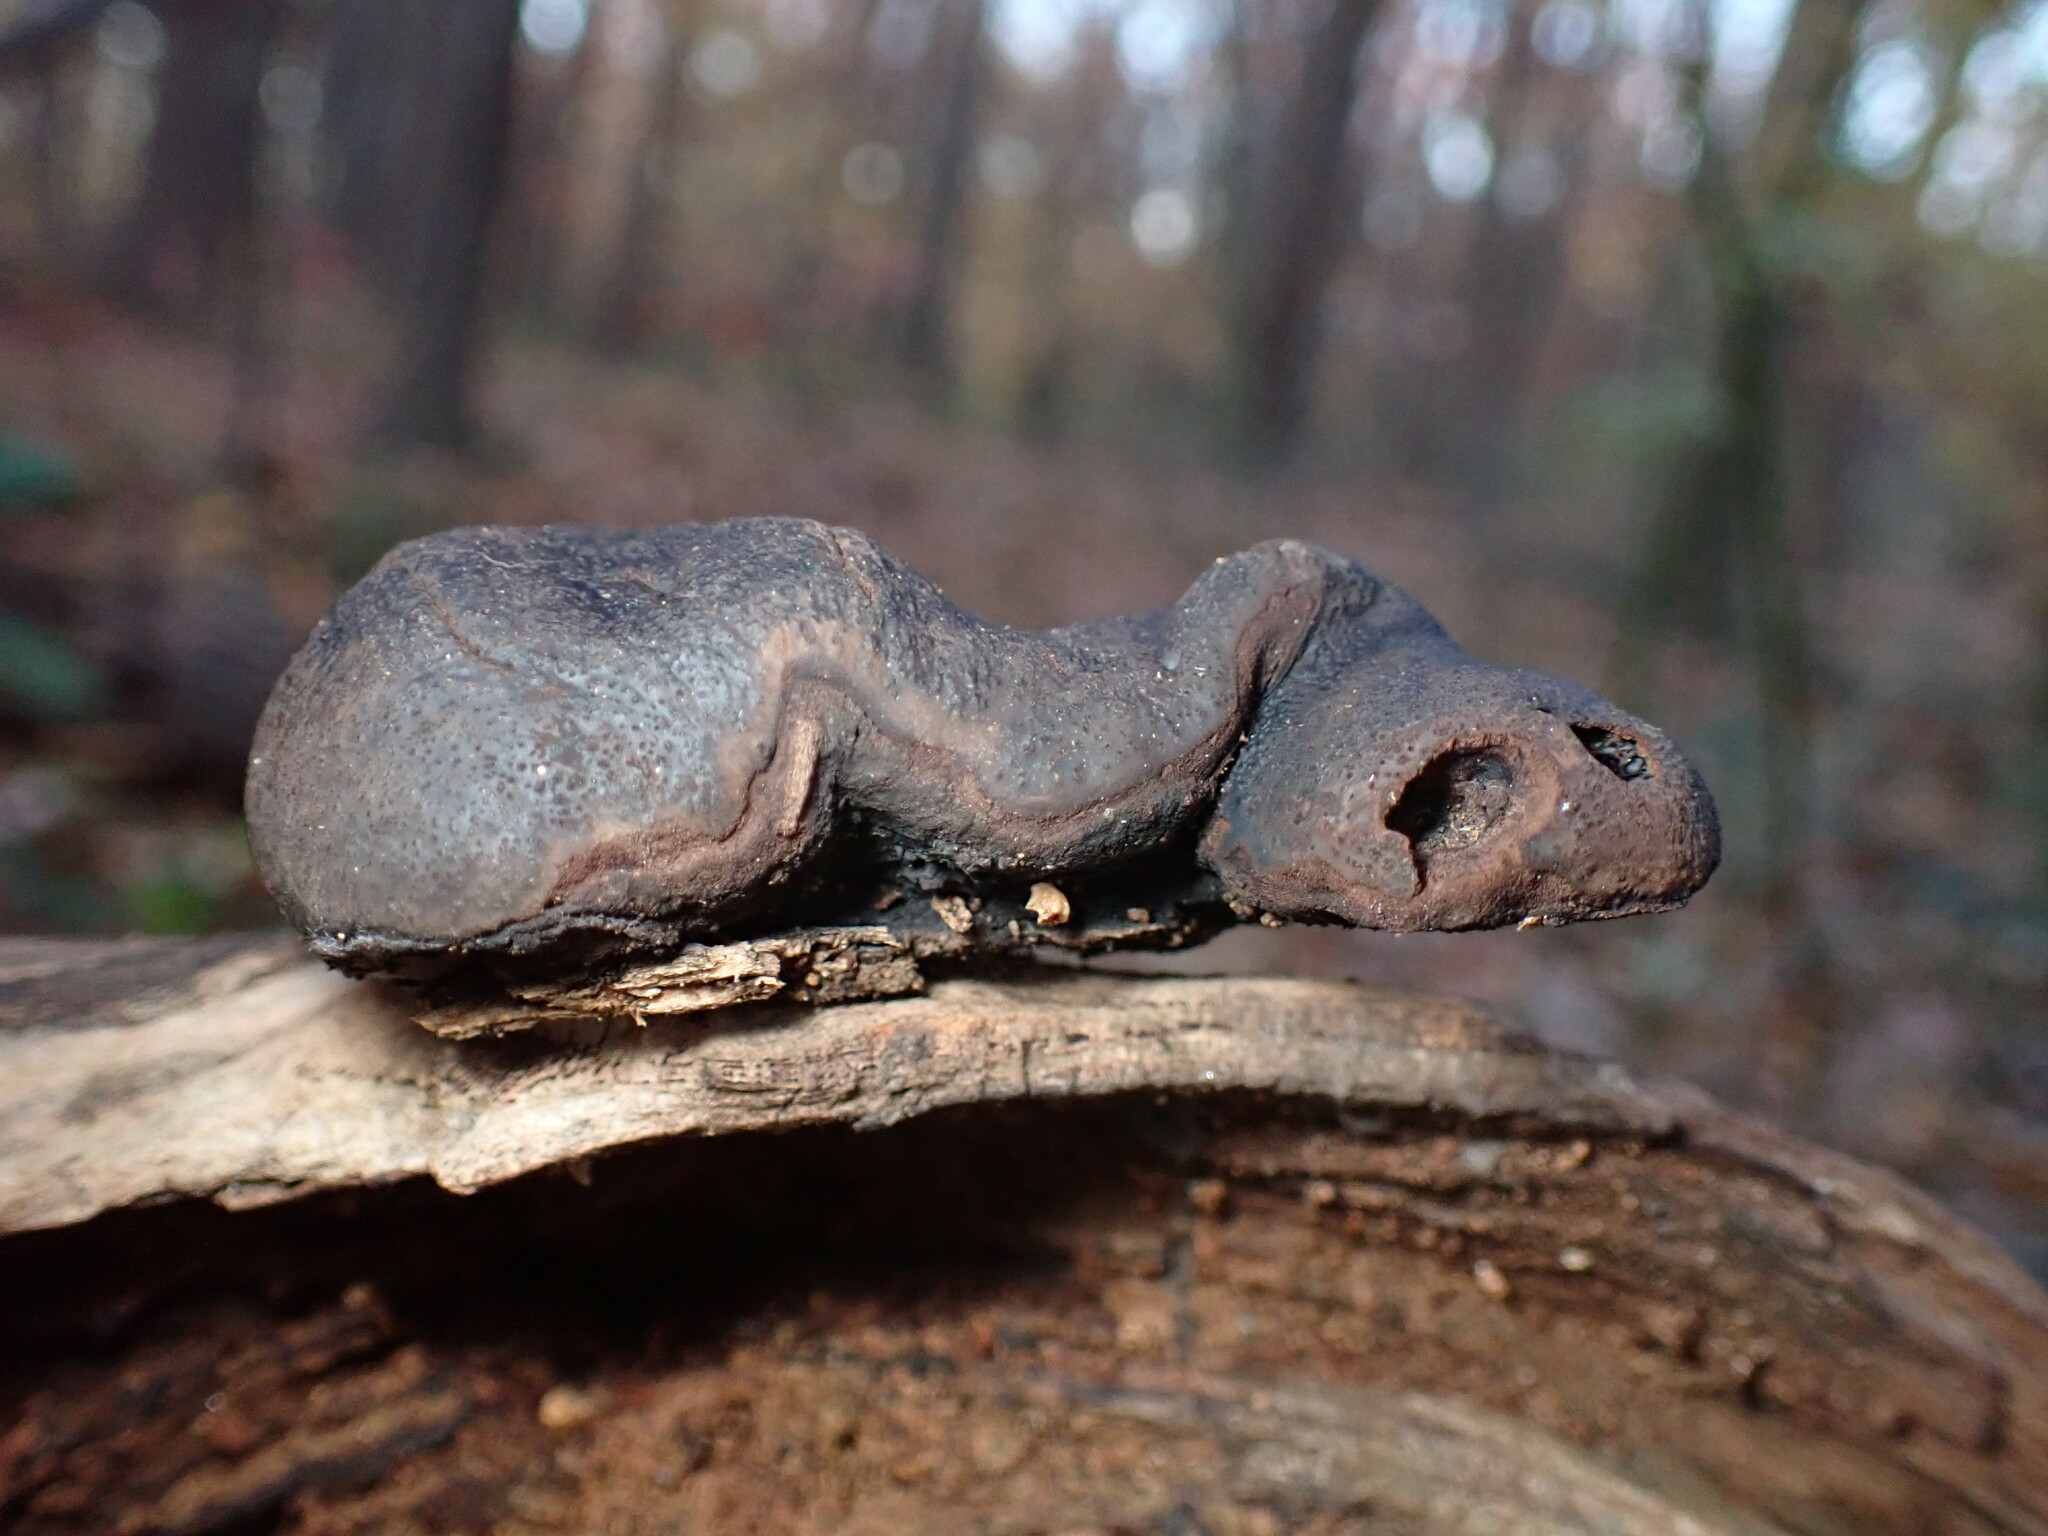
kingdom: Fungi
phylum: Ascomycota
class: Sordariomycetes
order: Boliniales
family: Boliniaceae
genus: Camarops
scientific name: Camarops petersii
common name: Dog's nose fungus
